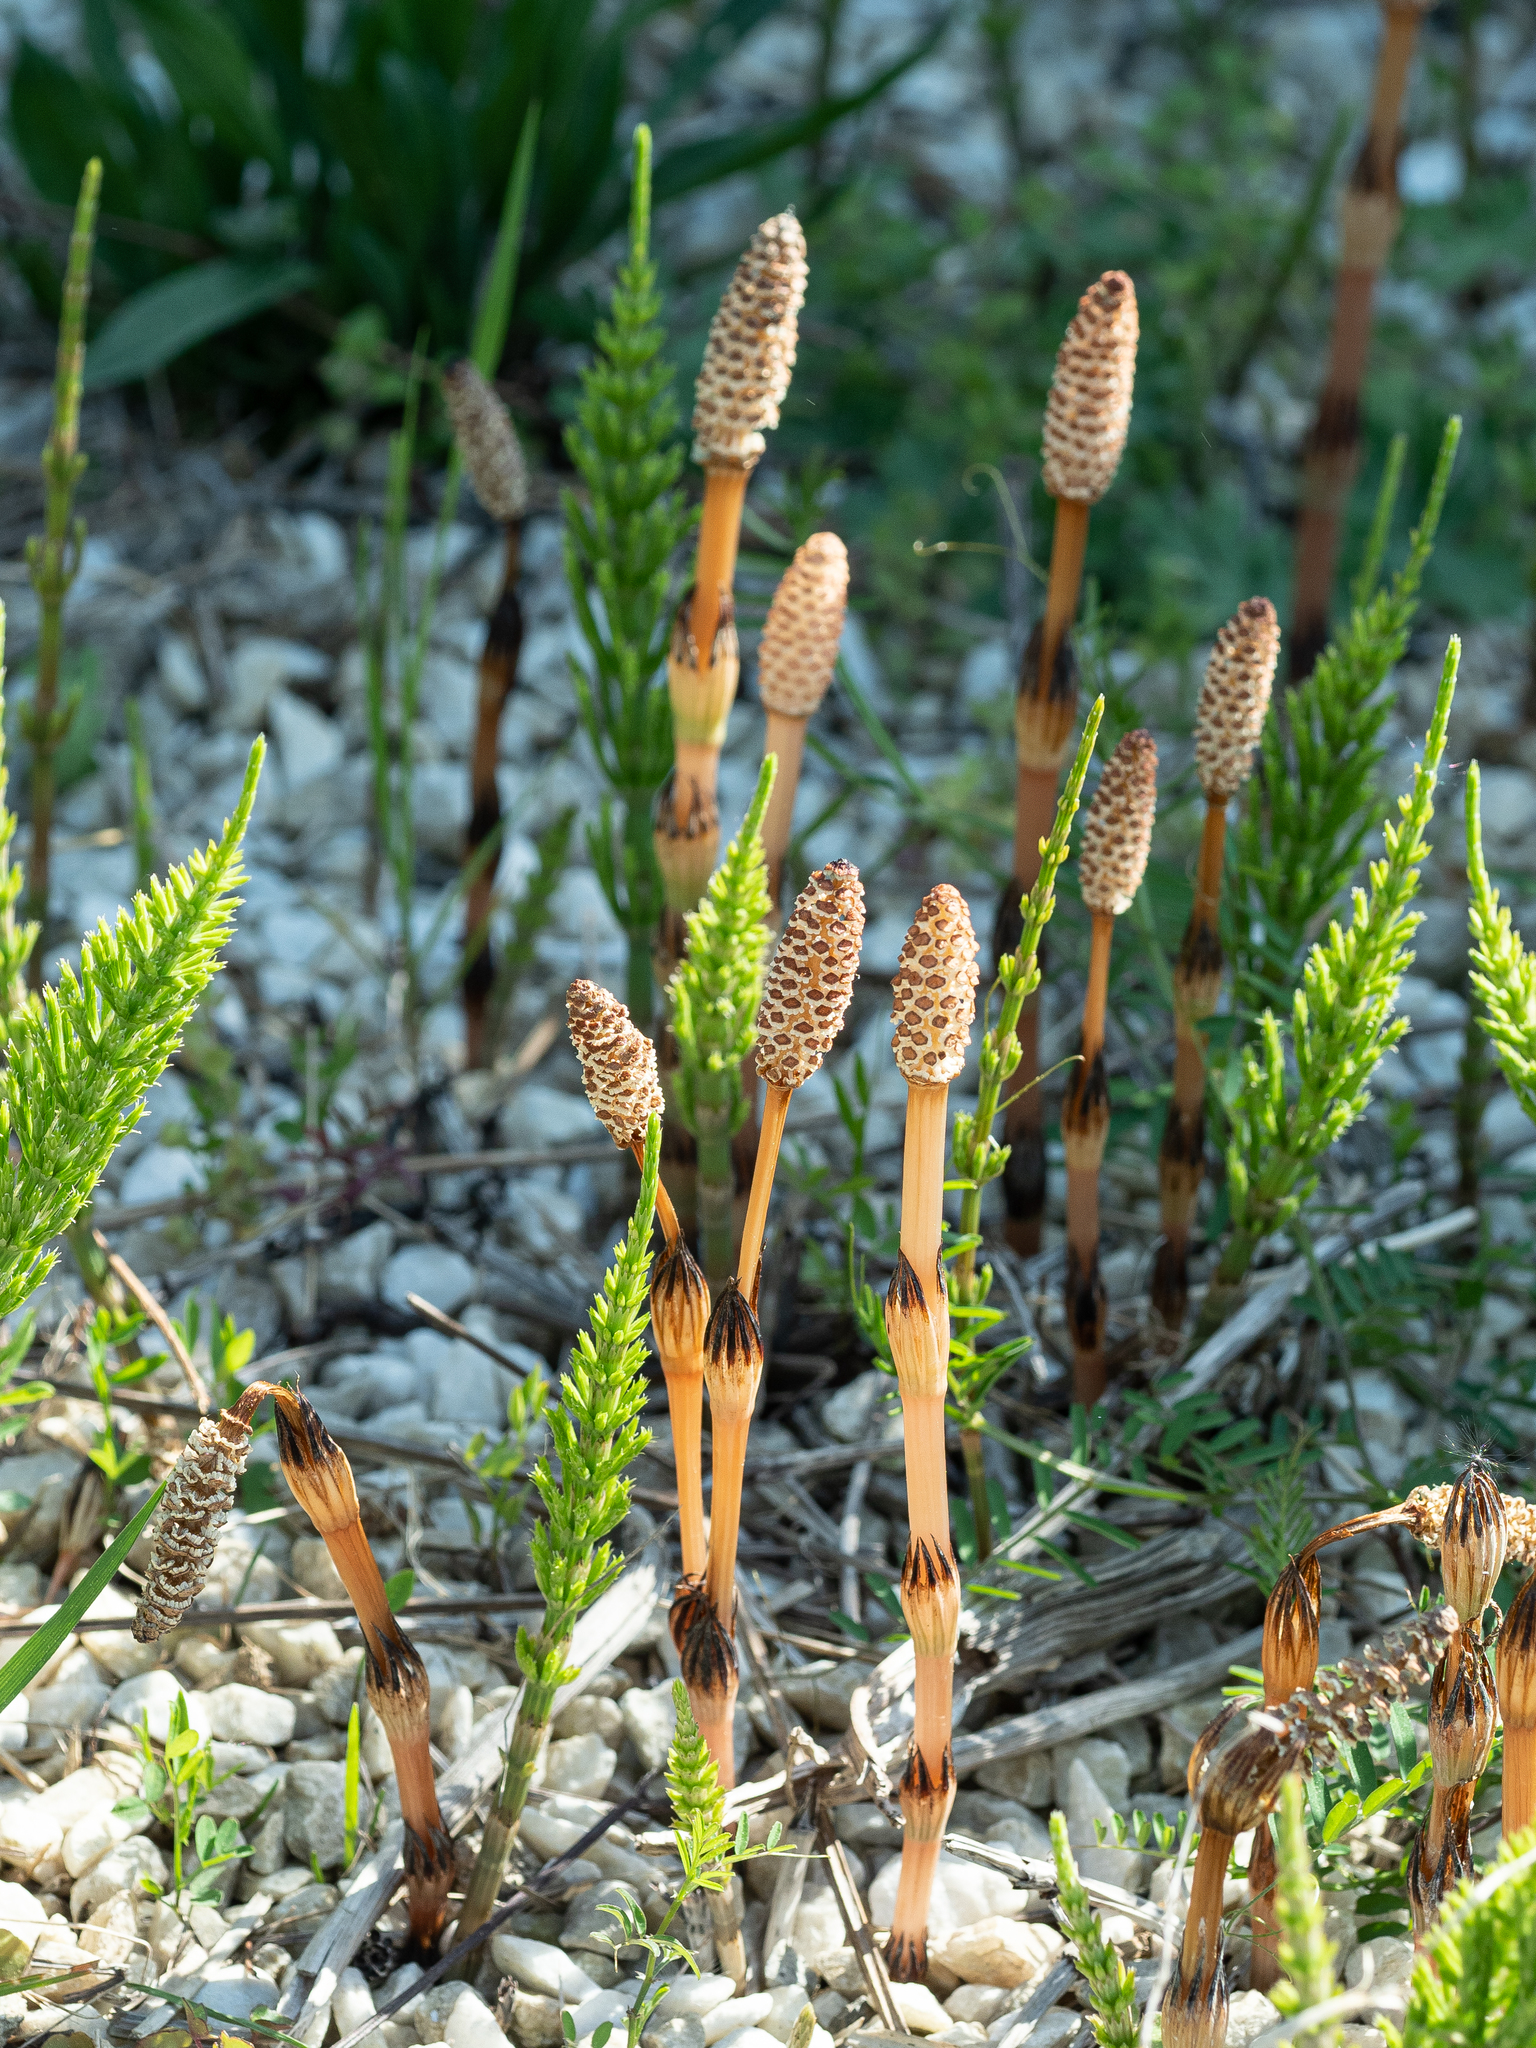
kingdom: Plantae
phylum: Tracheophyta
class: Polypodiopsida
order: Equisetales
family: Equisetaceae
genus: Equisetum
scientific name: Equisetum arvense
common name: Field horsetail
